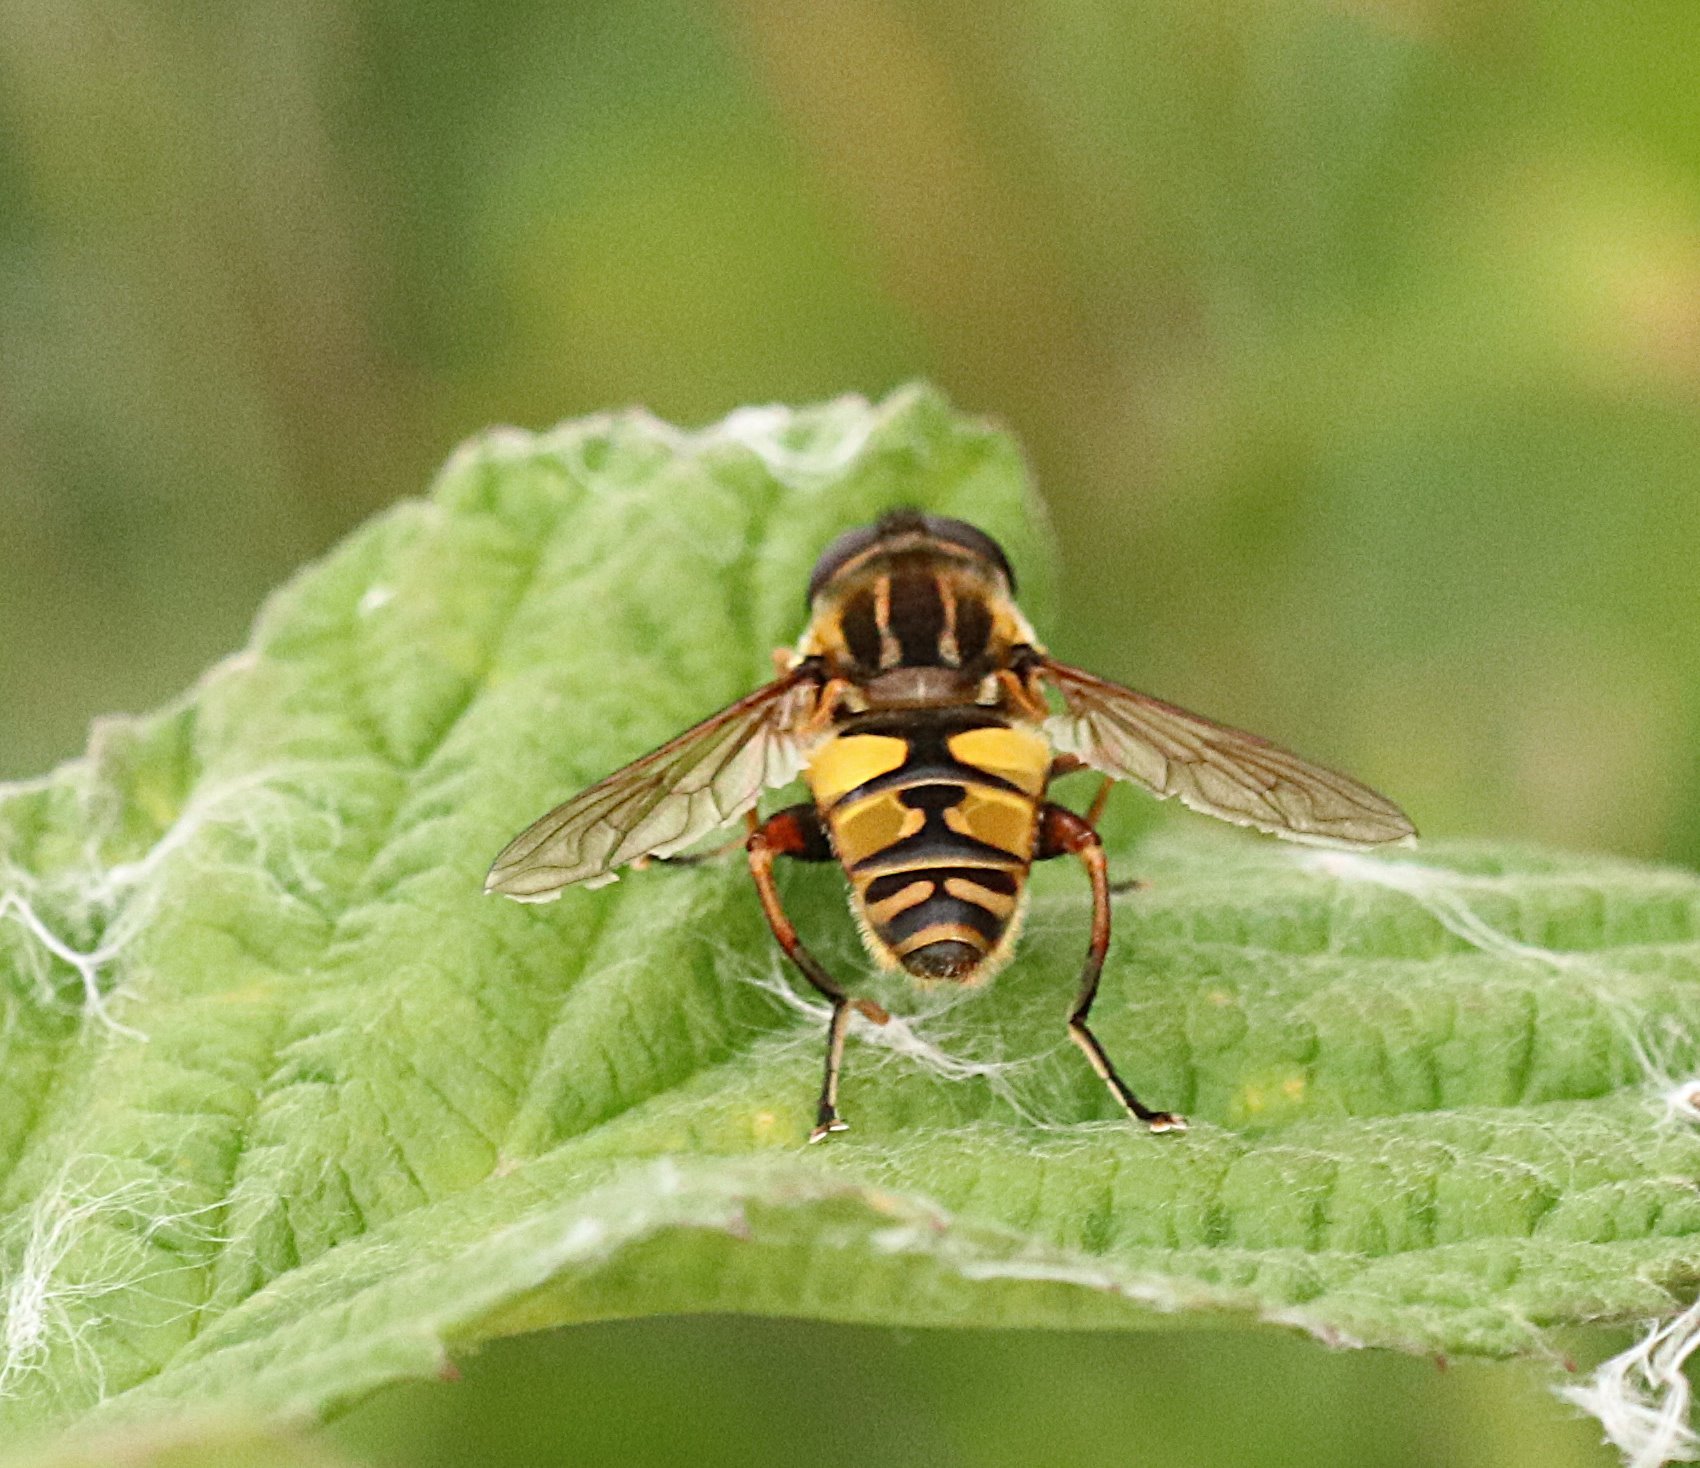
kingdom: Animalia
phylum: Arthropoda
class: Insecta
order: Diptera
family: Syrphidae
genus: Helophilus
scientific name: Helophilus pendulus
